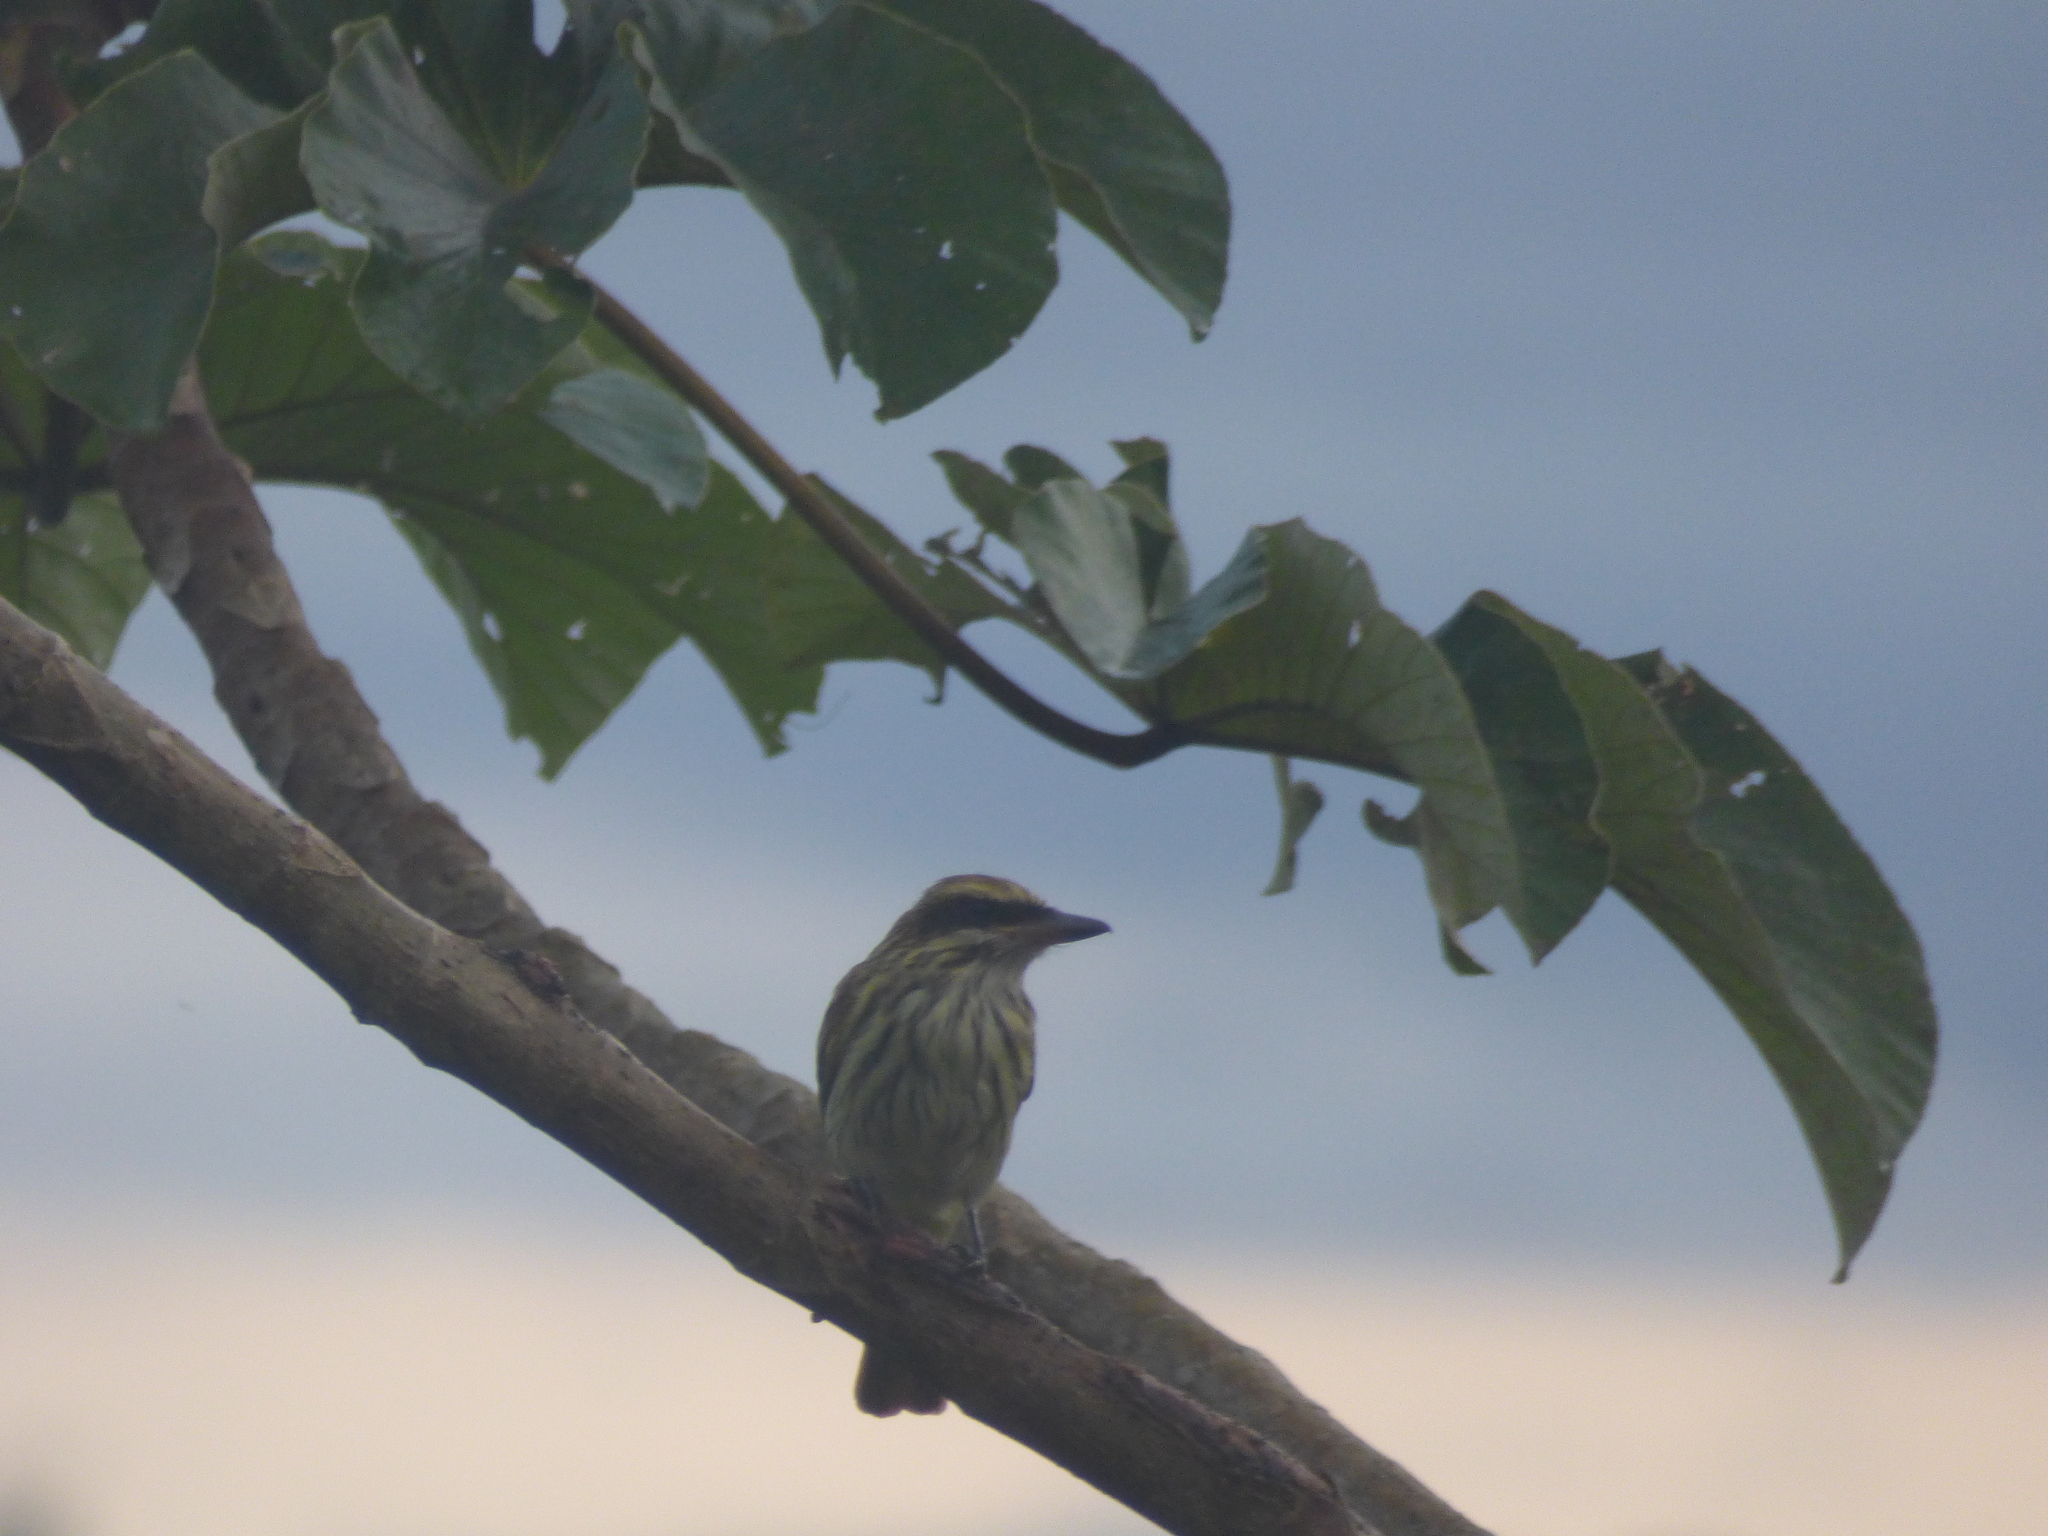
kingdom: Animalia
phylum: Chordata
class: Aves
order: Passeriformes
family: Tyrannidae
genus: Myiodynastes
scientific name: Myiodynastes maculatus
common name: Streaked flycatcher
